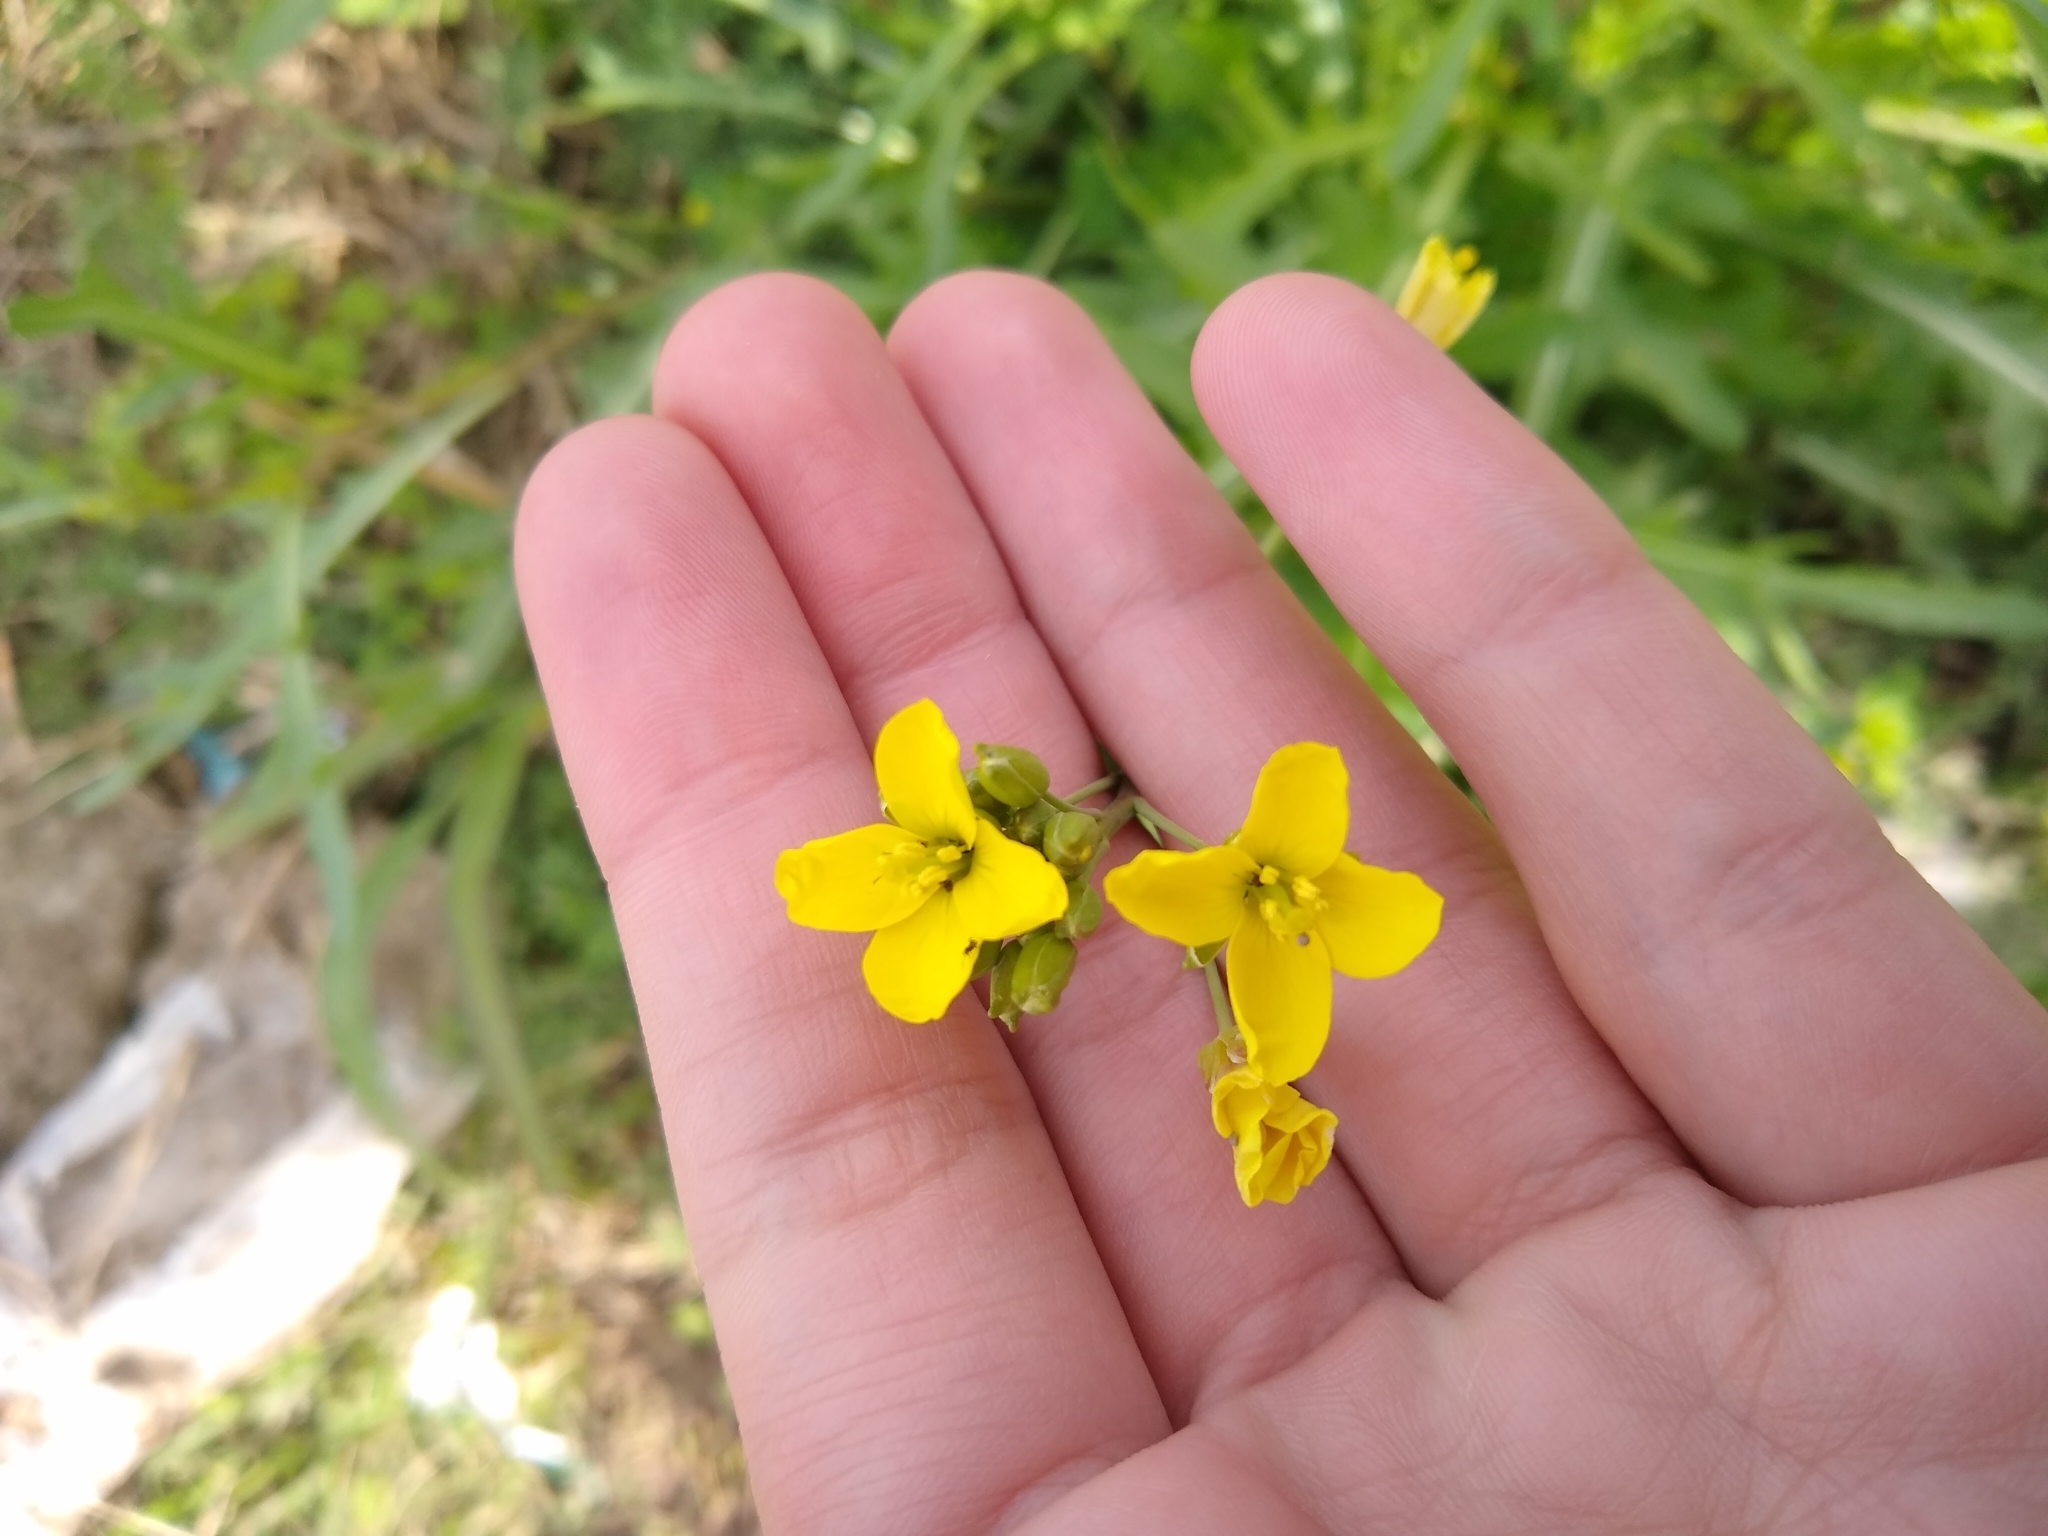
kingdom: Plantae
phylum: Tracheophyta
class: Magnoliopsida
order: Brassicales
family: Brassicaceae
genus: Diplotaxis
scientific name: Diplotaxis tenuifolia
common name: Perennial wall-rocket
